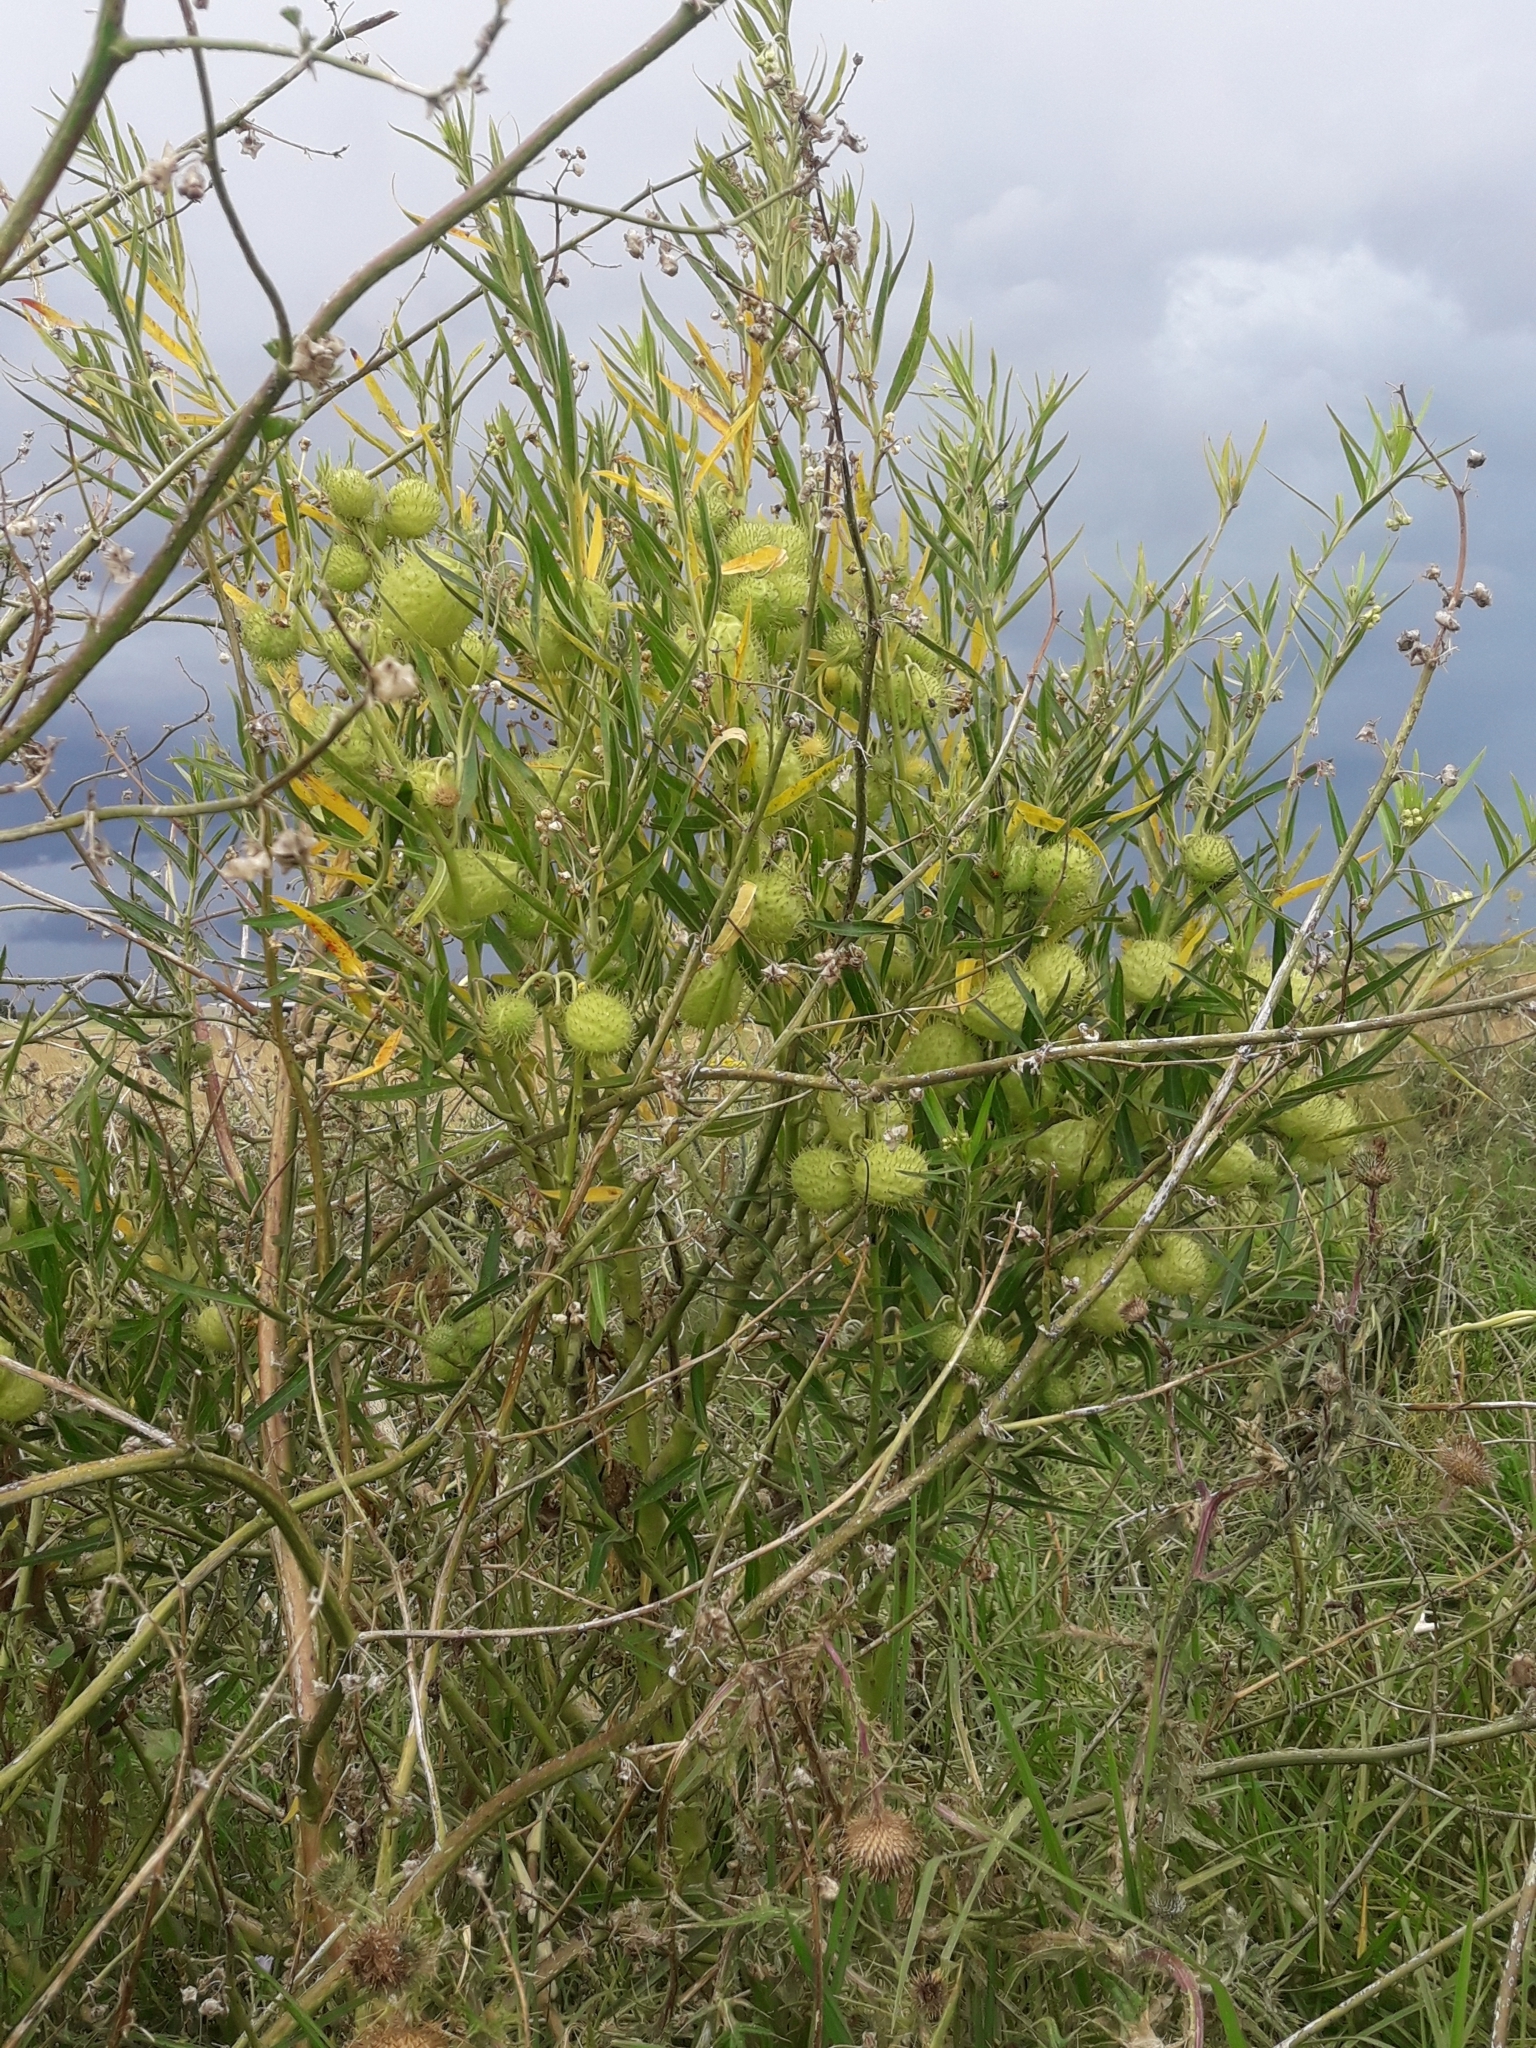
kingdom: Plantae
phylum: Tracheophyta
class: Magnoliopsida
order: Gentianales
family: Apocynaceae
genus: Gomphocarpus
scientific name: Gomphocarpus physocarpus
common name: Balloon cotton bush
